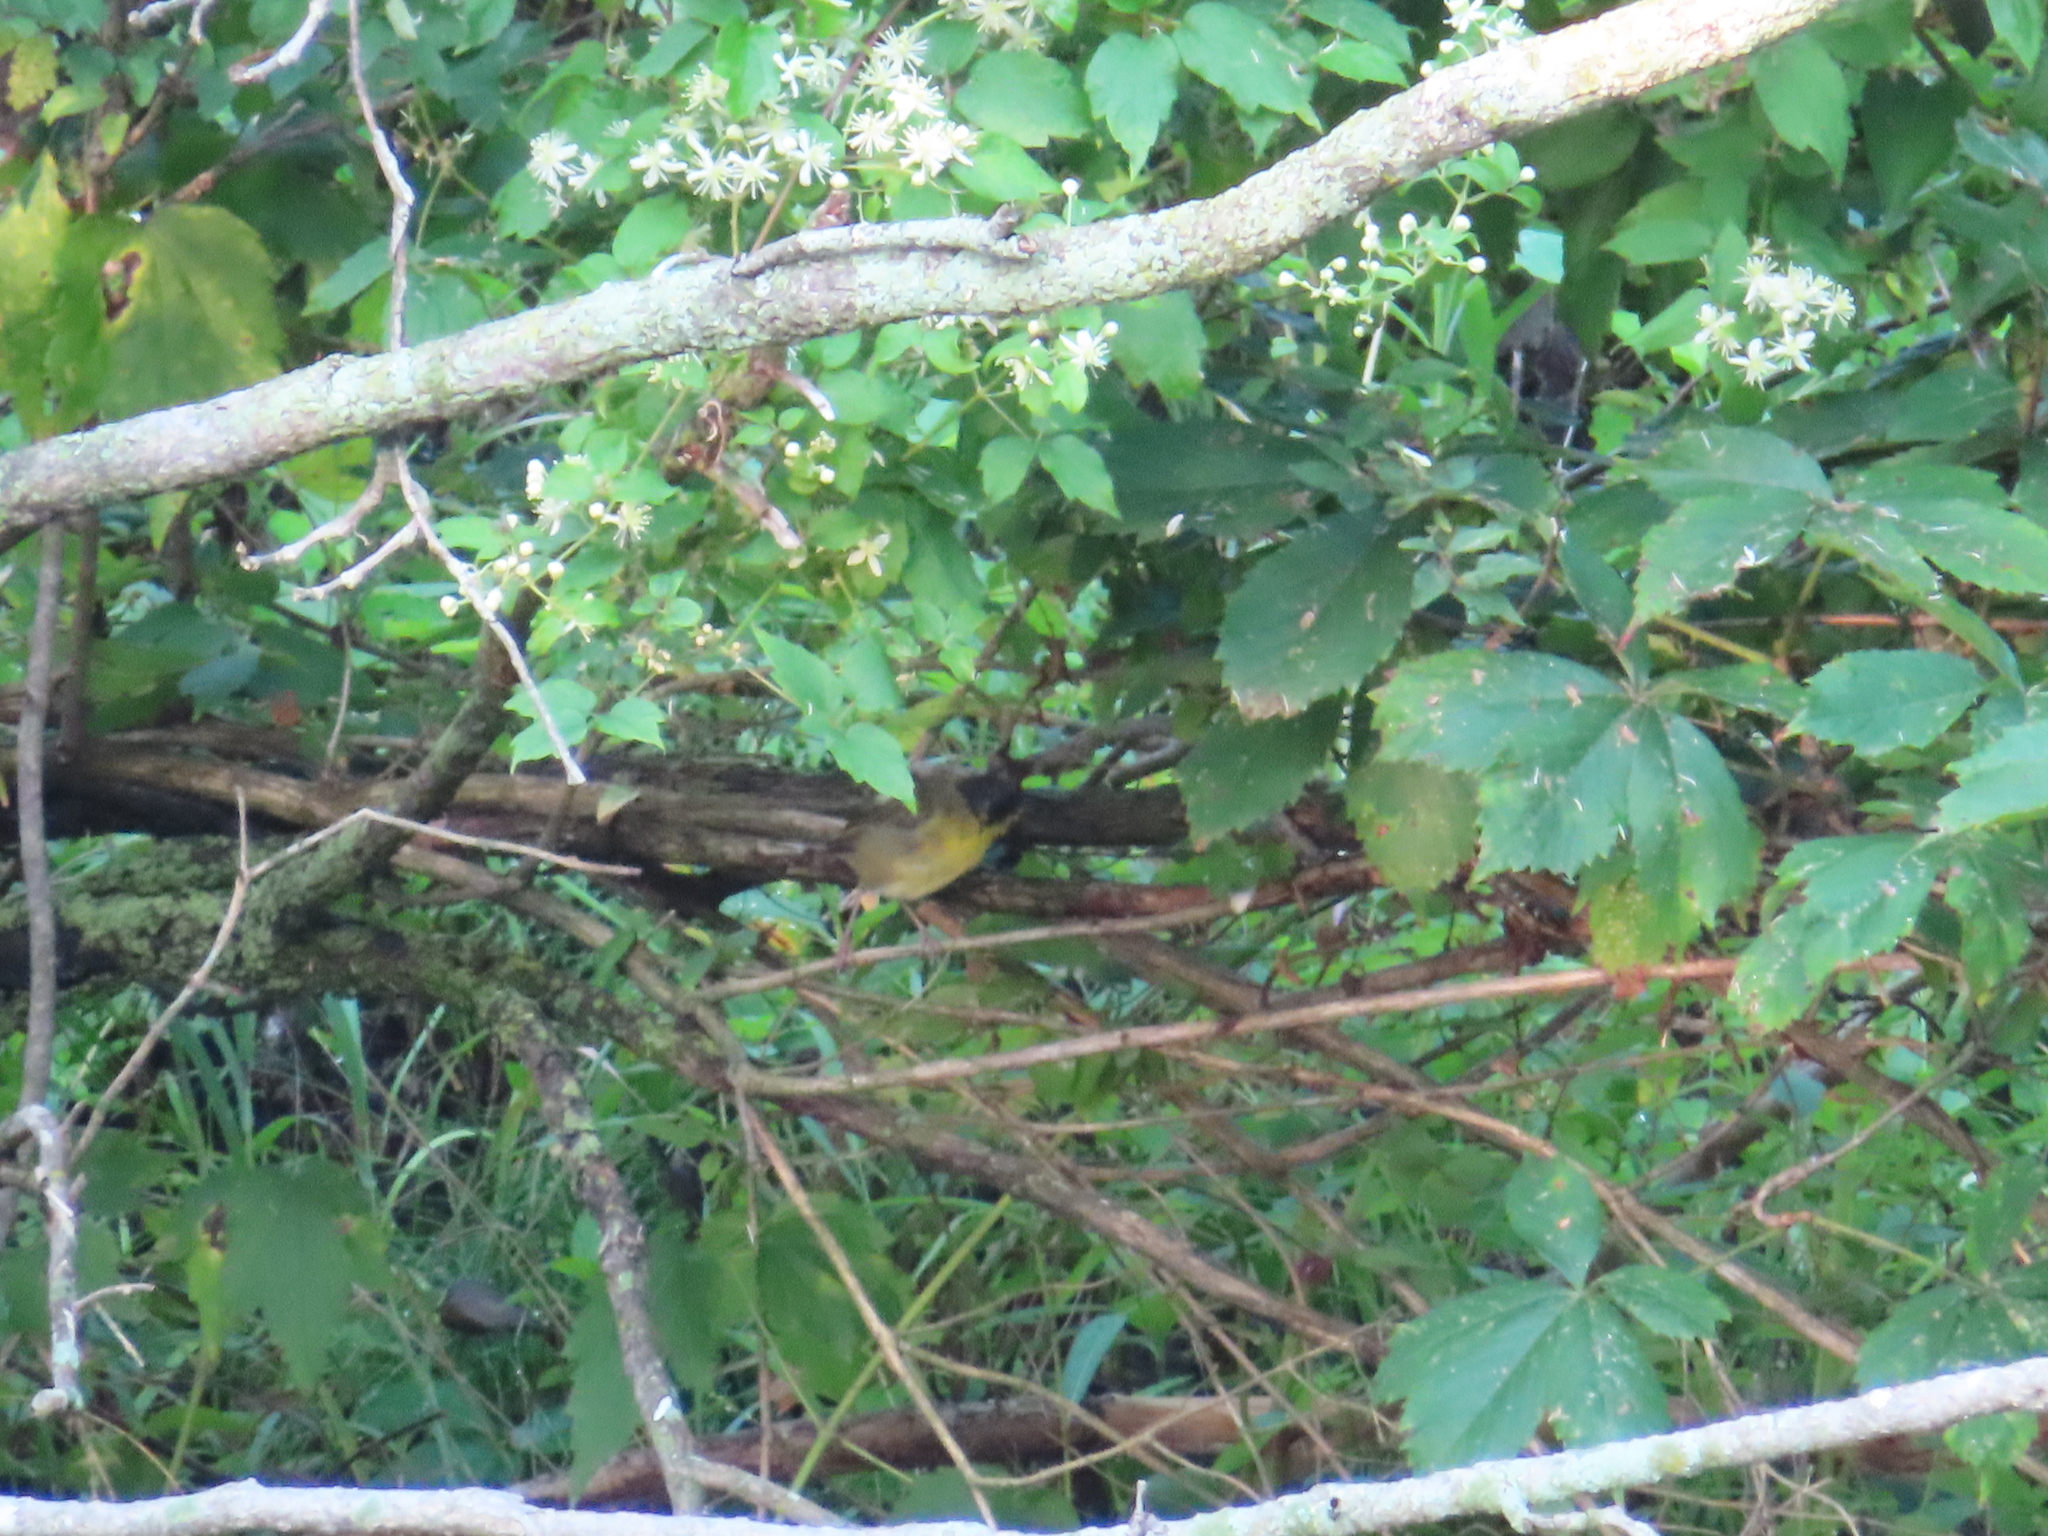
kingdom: Animalia
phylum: Chordata
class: Aves
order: Passeriformes
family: Parulidae
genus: Geothlypis
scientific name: Geothlypis trichas
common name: Common yellowthroat
